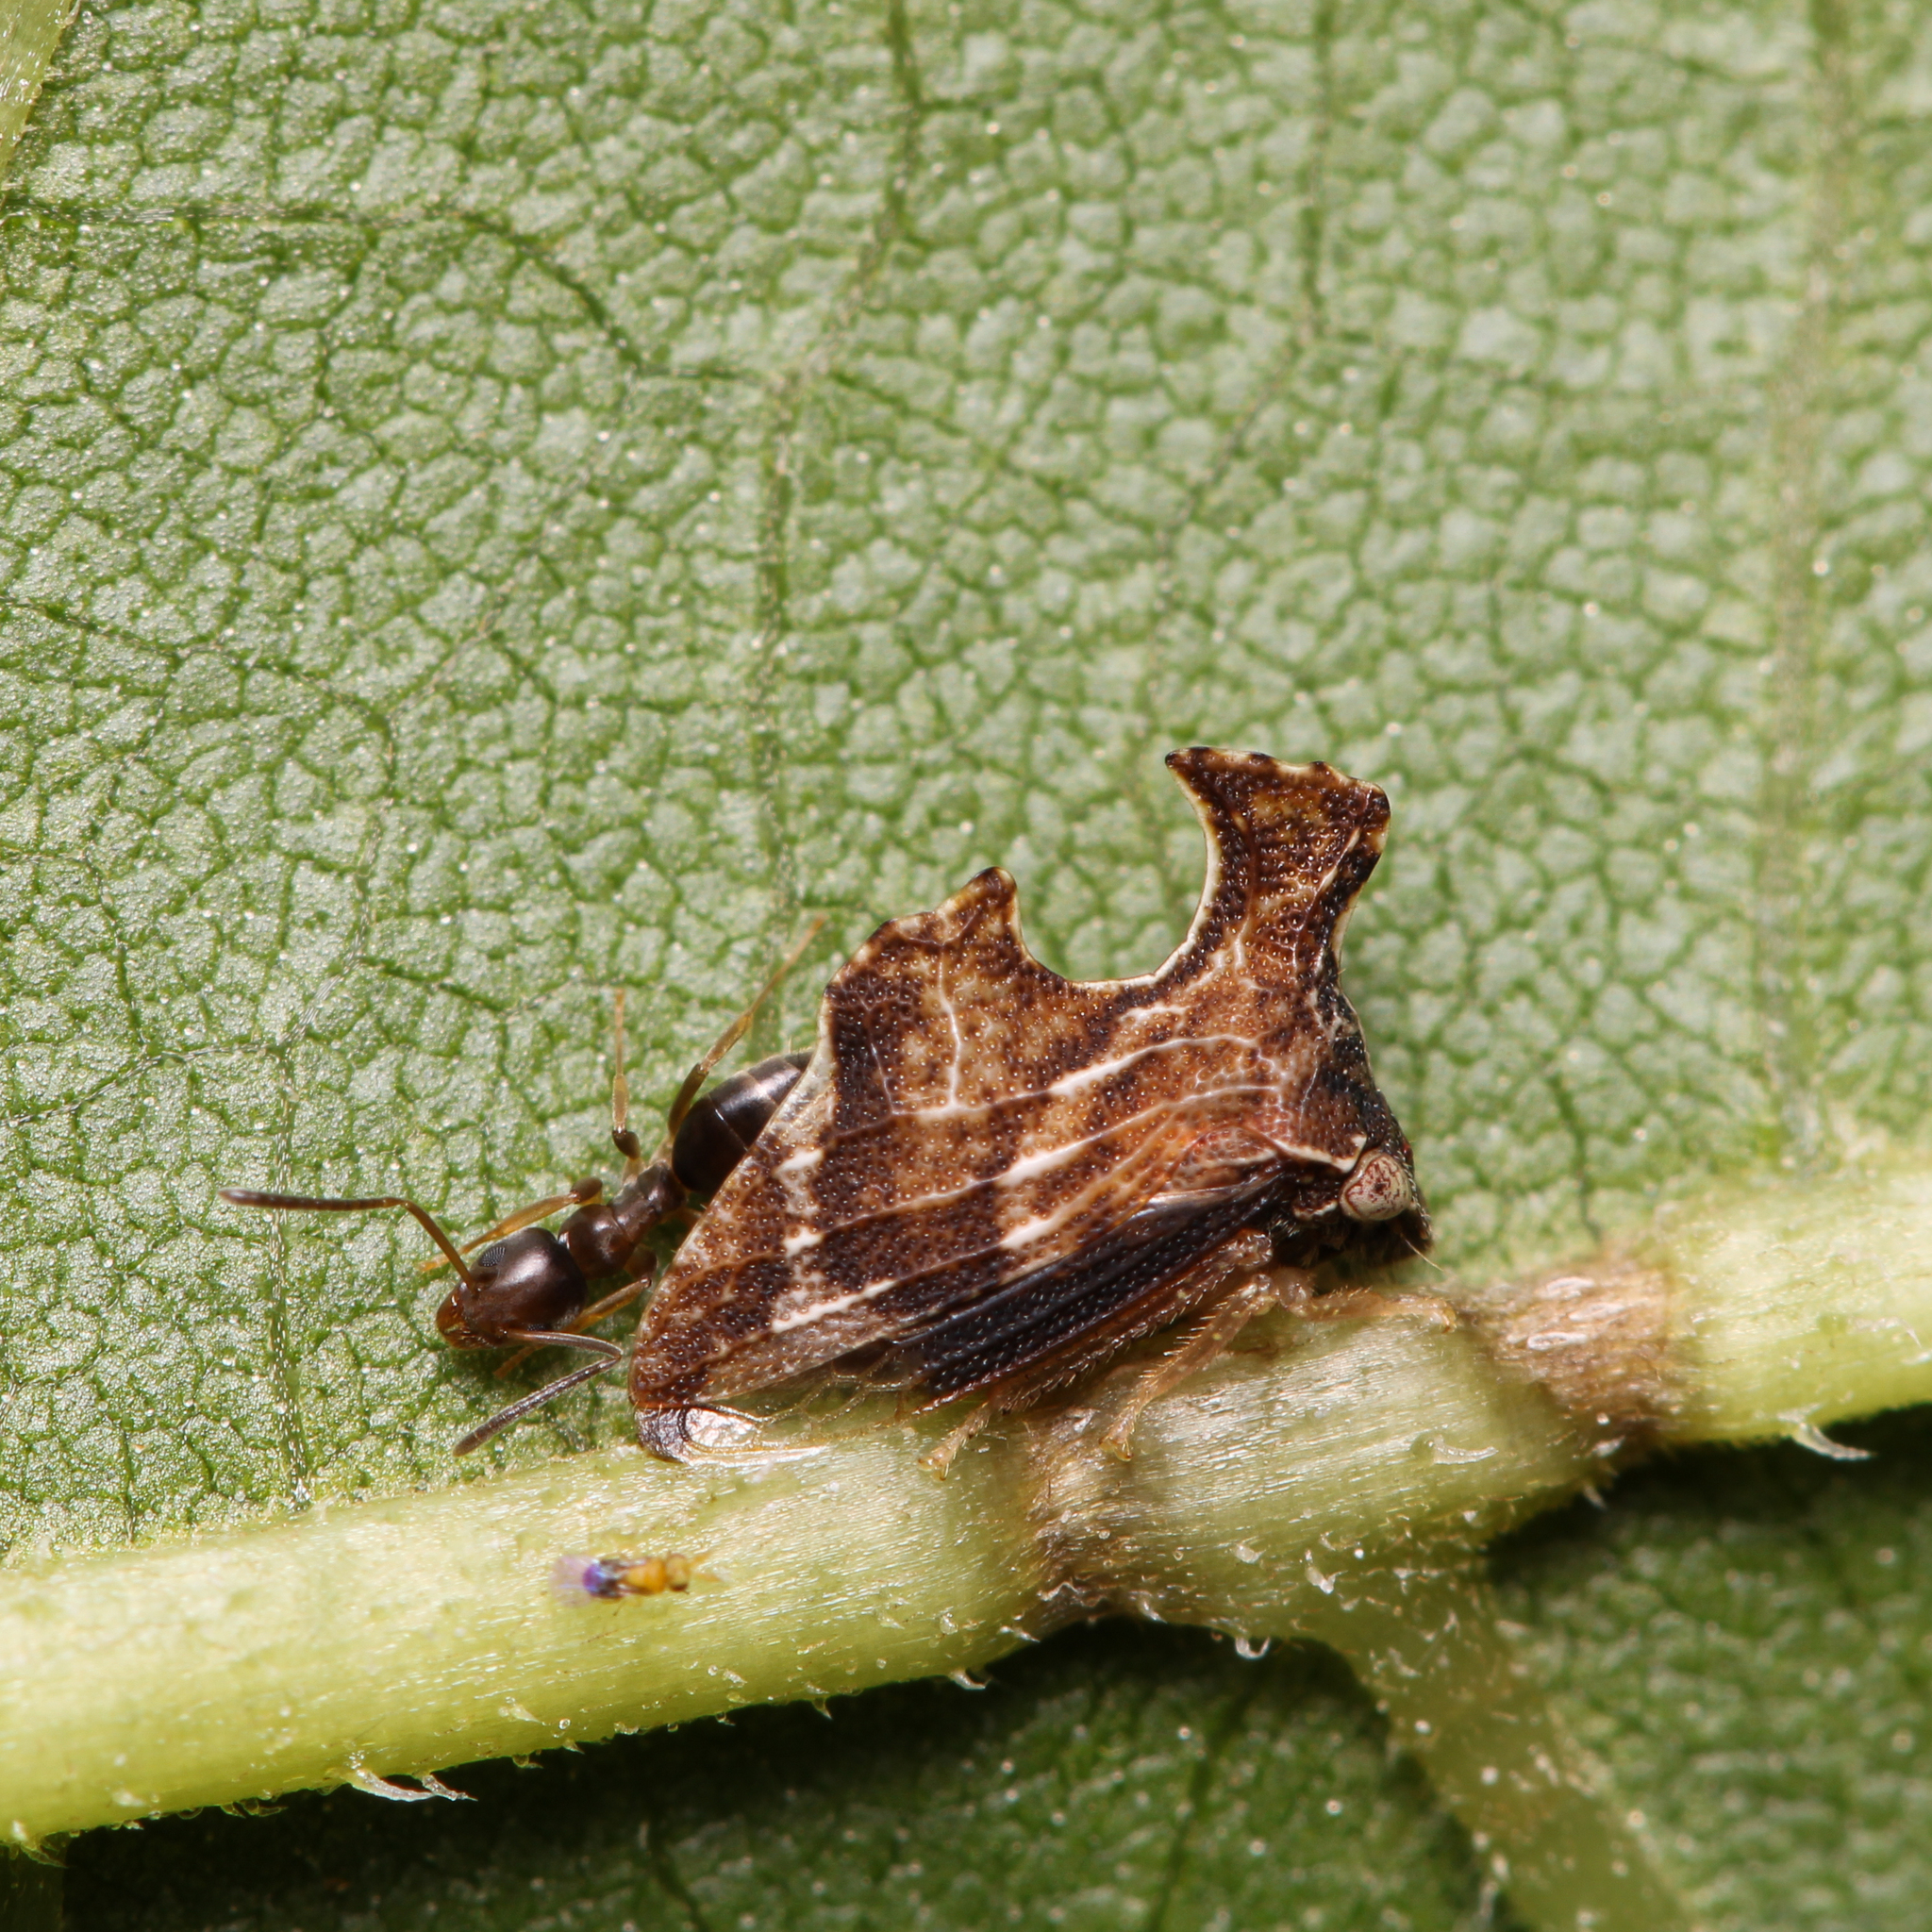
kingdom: Animalia
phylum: Arthropoda
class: Insecta
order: Hemiptera
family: Membracidae
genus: Entylia
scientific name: Entylia carinata
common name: Keeled treehopper
